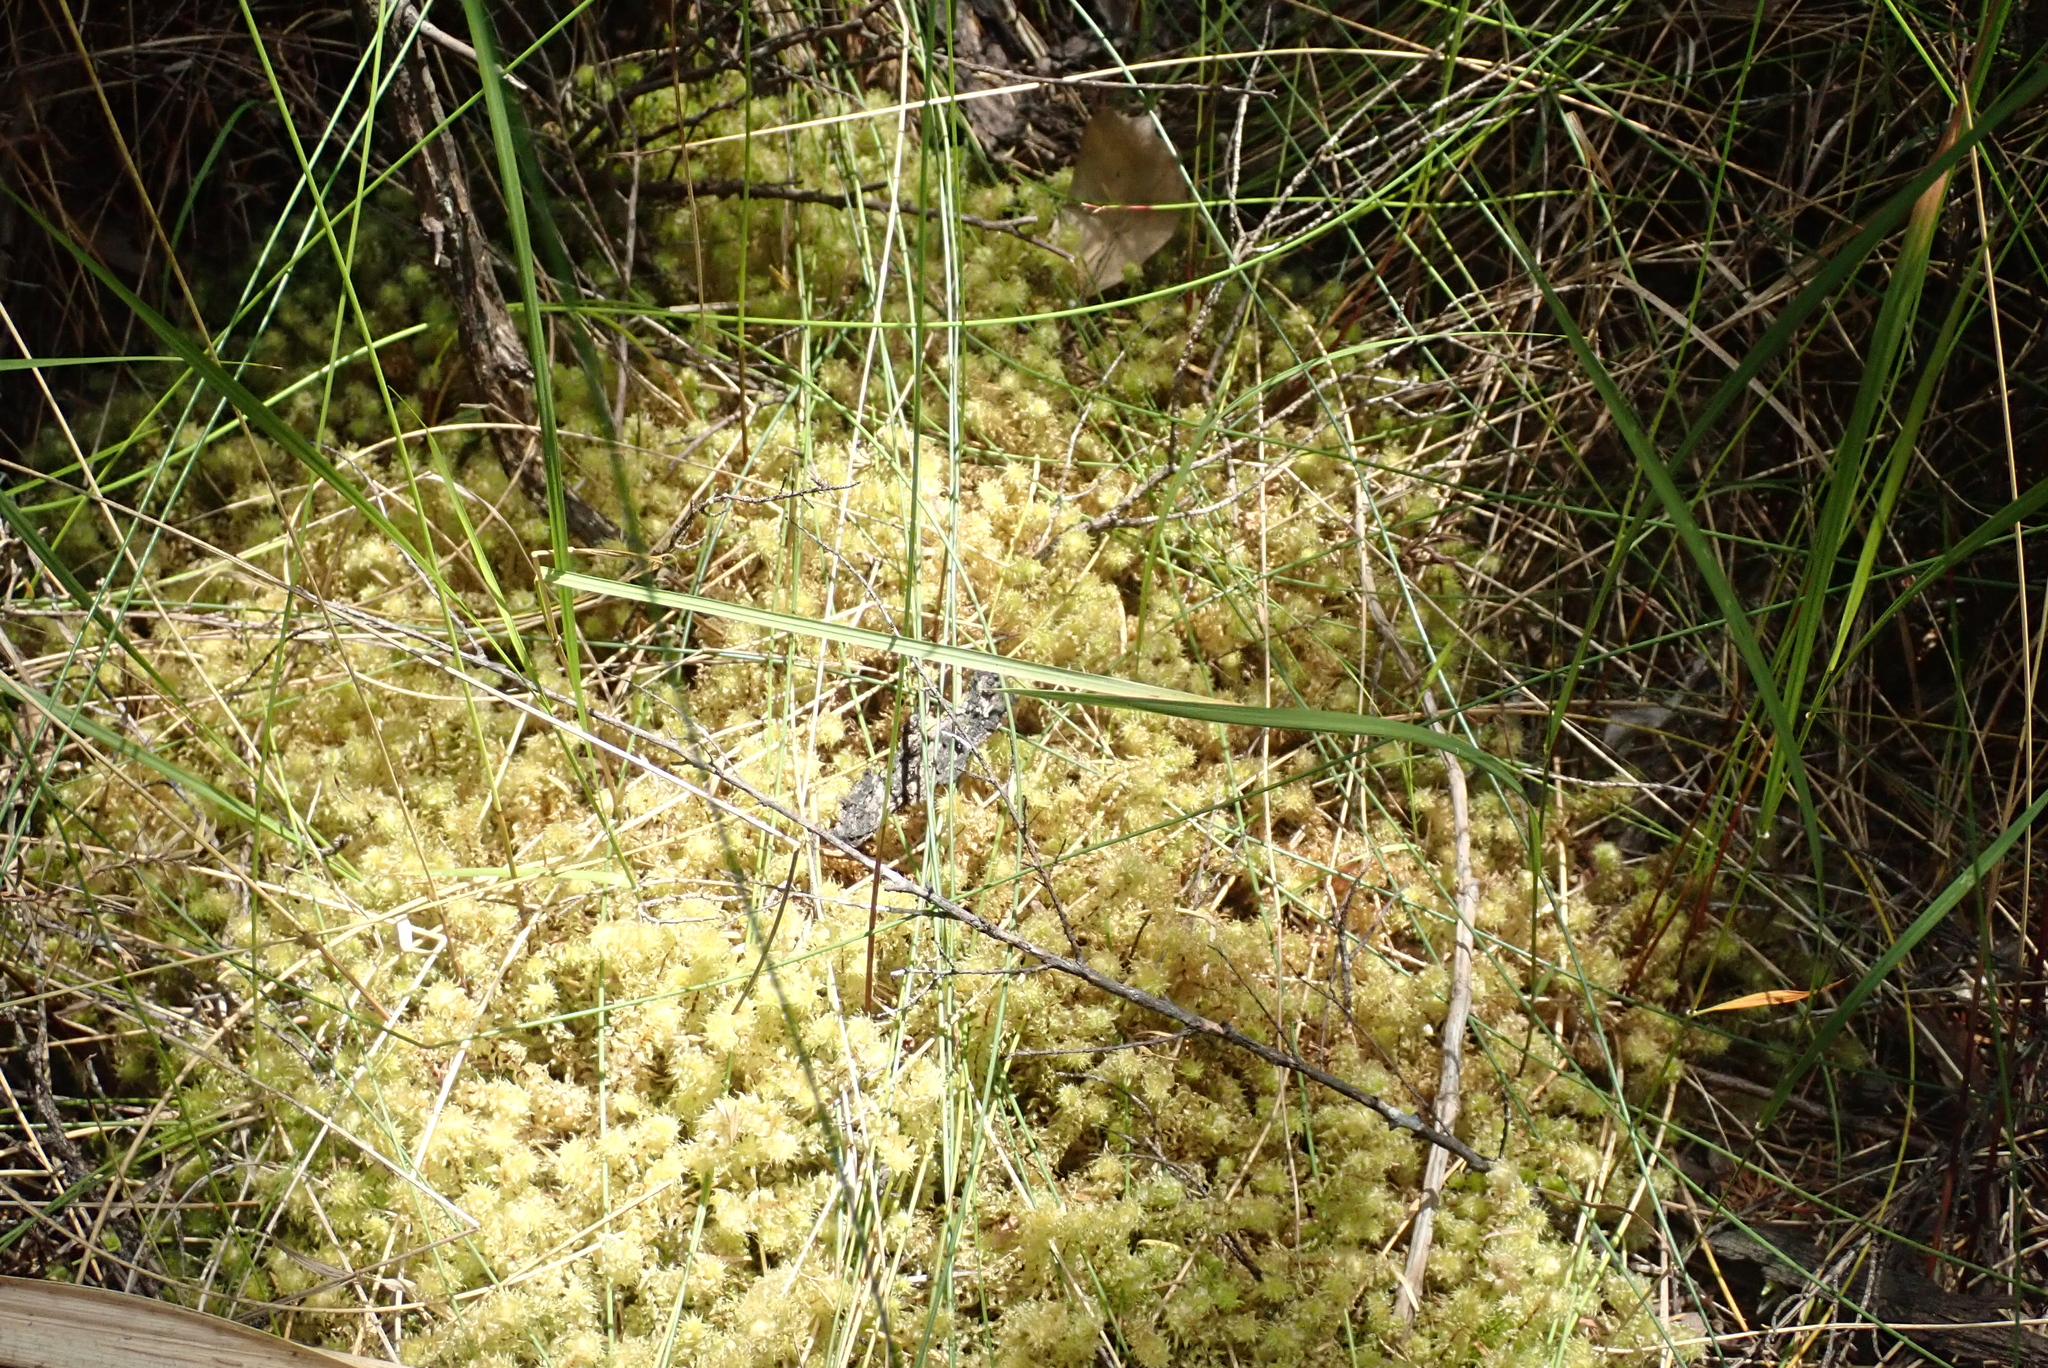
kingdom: Plantae
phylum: Bryophyta
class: Bryopsida
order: Ptychomniales
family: Ptychomniaceae
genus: Ptychomnion
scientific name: Ptychomnion aciculare
